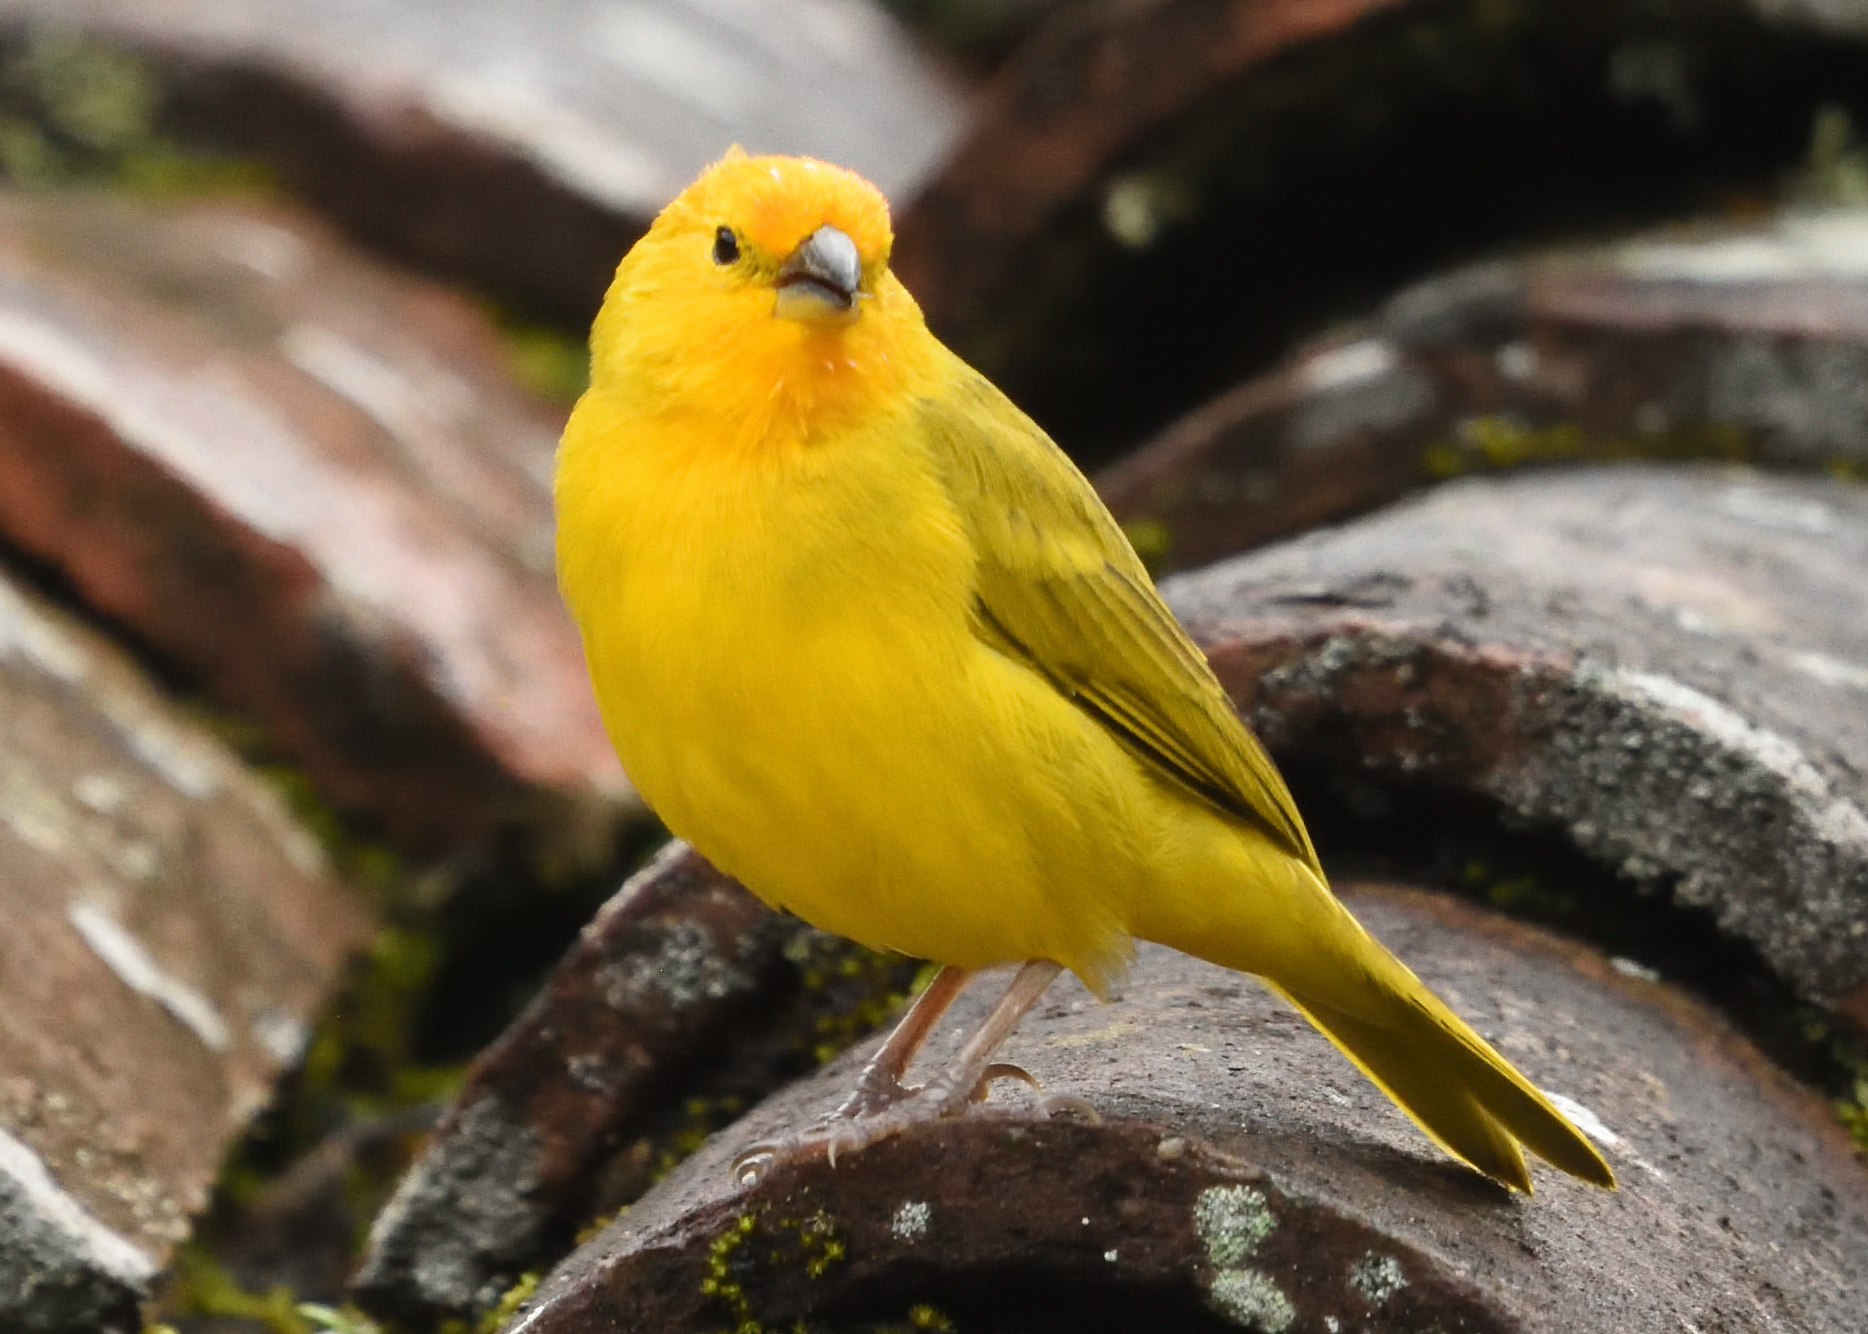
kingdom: Animalia
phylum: Chordata
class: Aves
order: Passeriformes
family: Thraupidae
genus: Sicalis
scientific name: Sicalis flaveola
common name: Saffron finch
